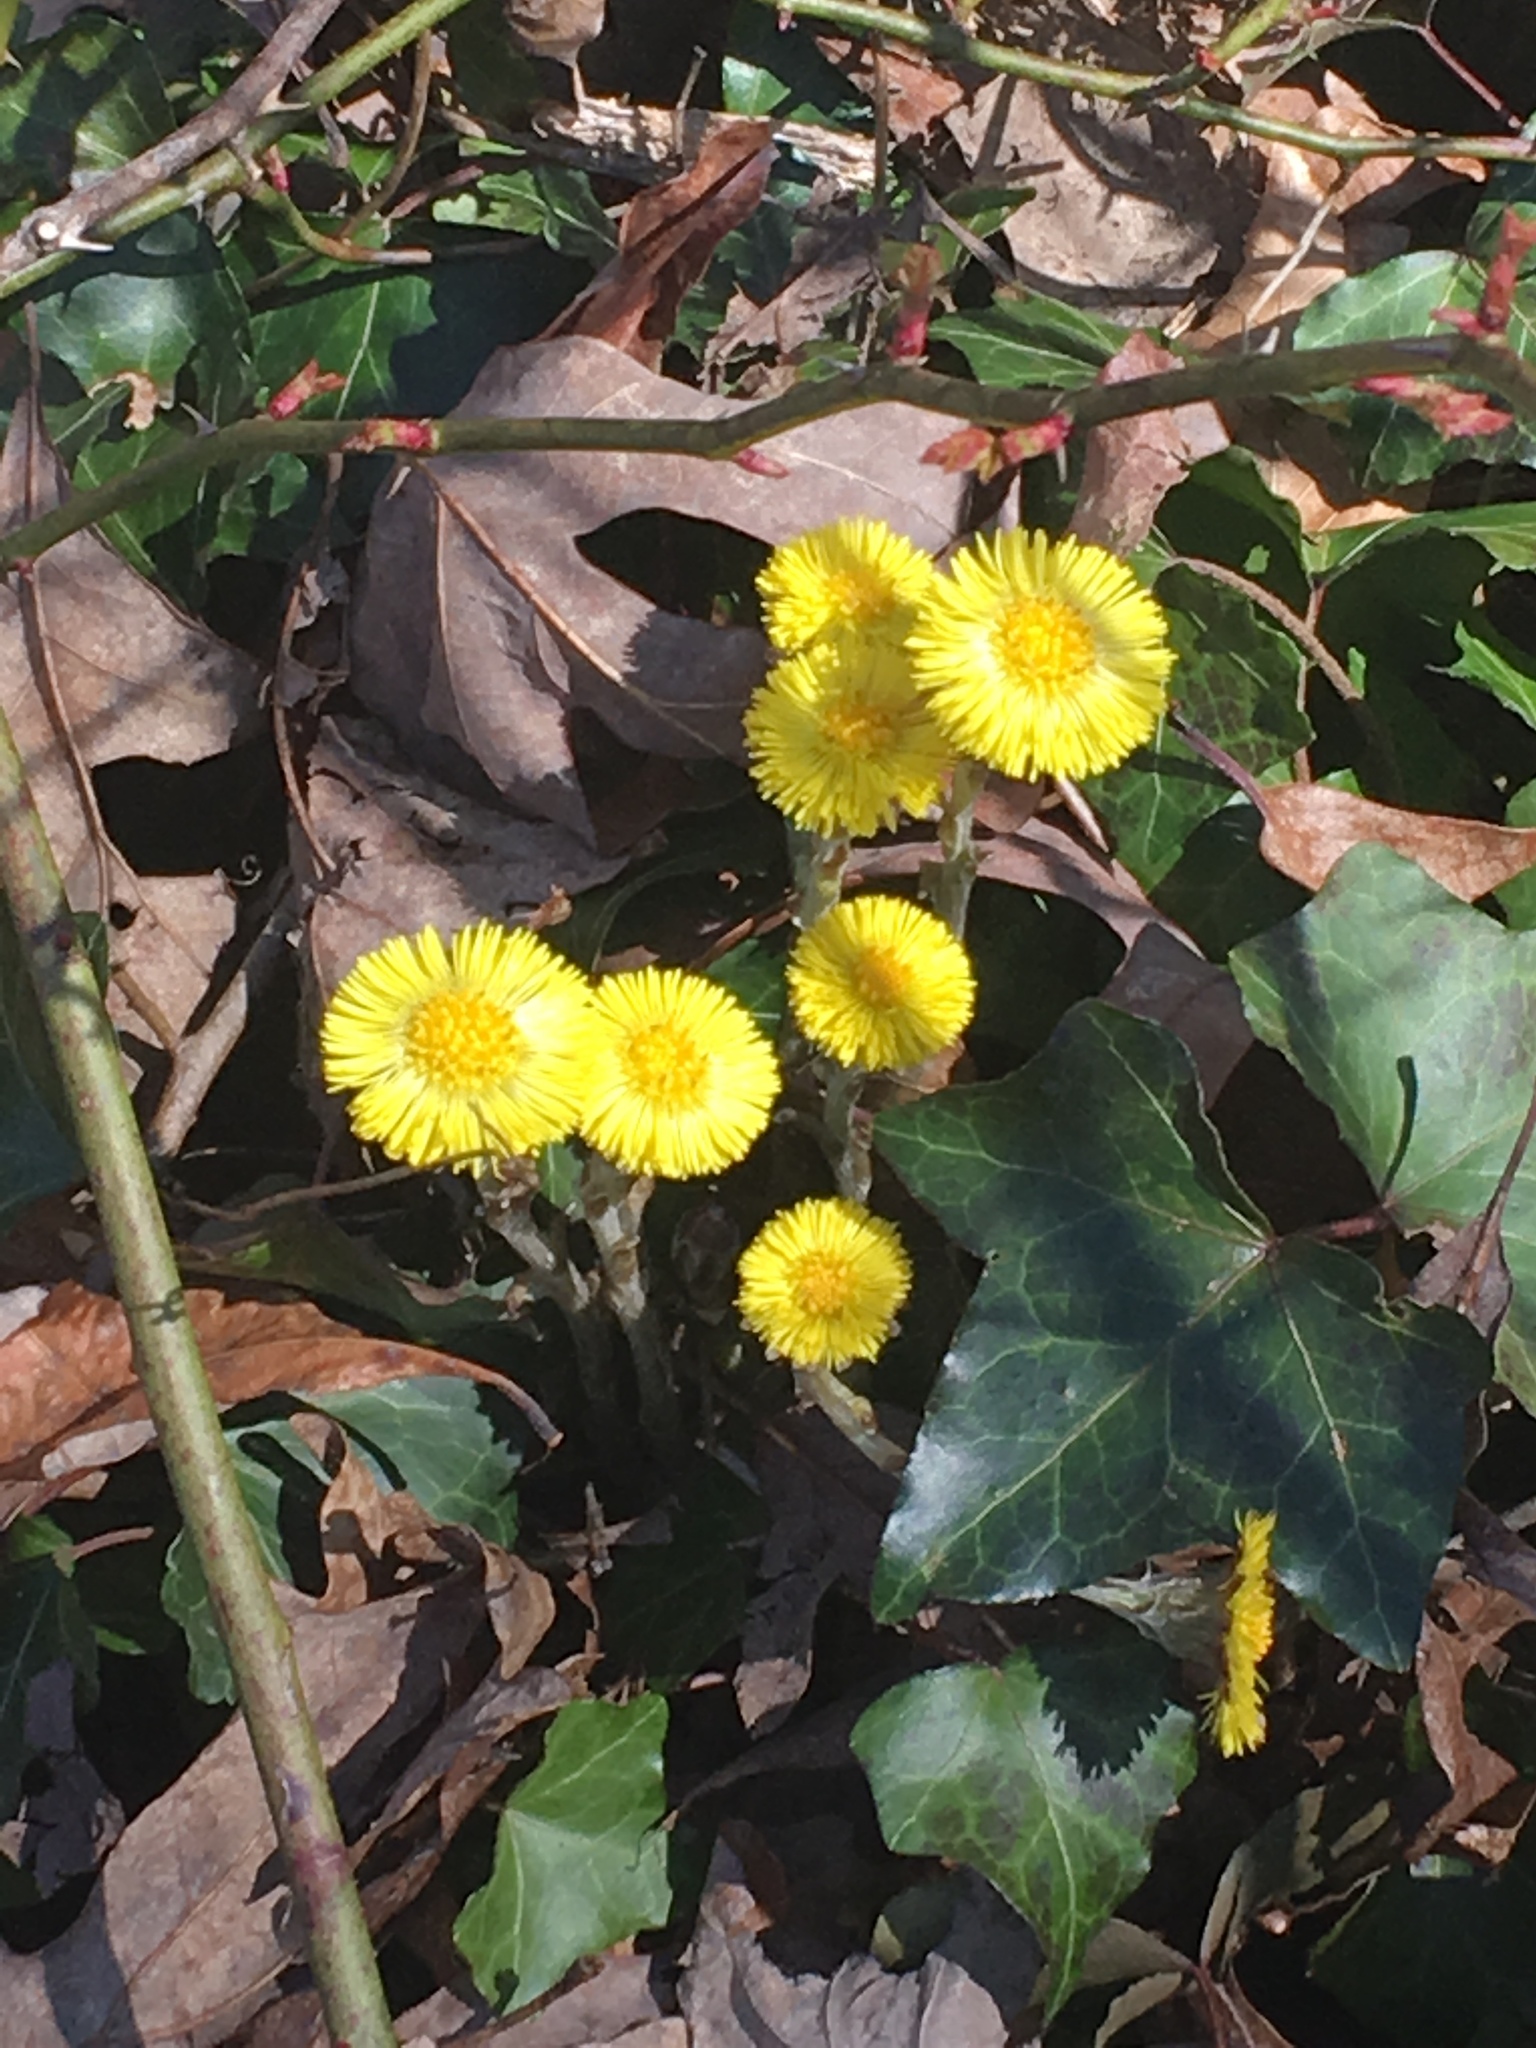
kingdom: Plantae
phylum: Tracheophyta
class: Magnoliopsida
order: Asterales
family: Asteraceae
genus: Tussilago
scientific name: Tussilago farfara
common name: Coltsfoot
